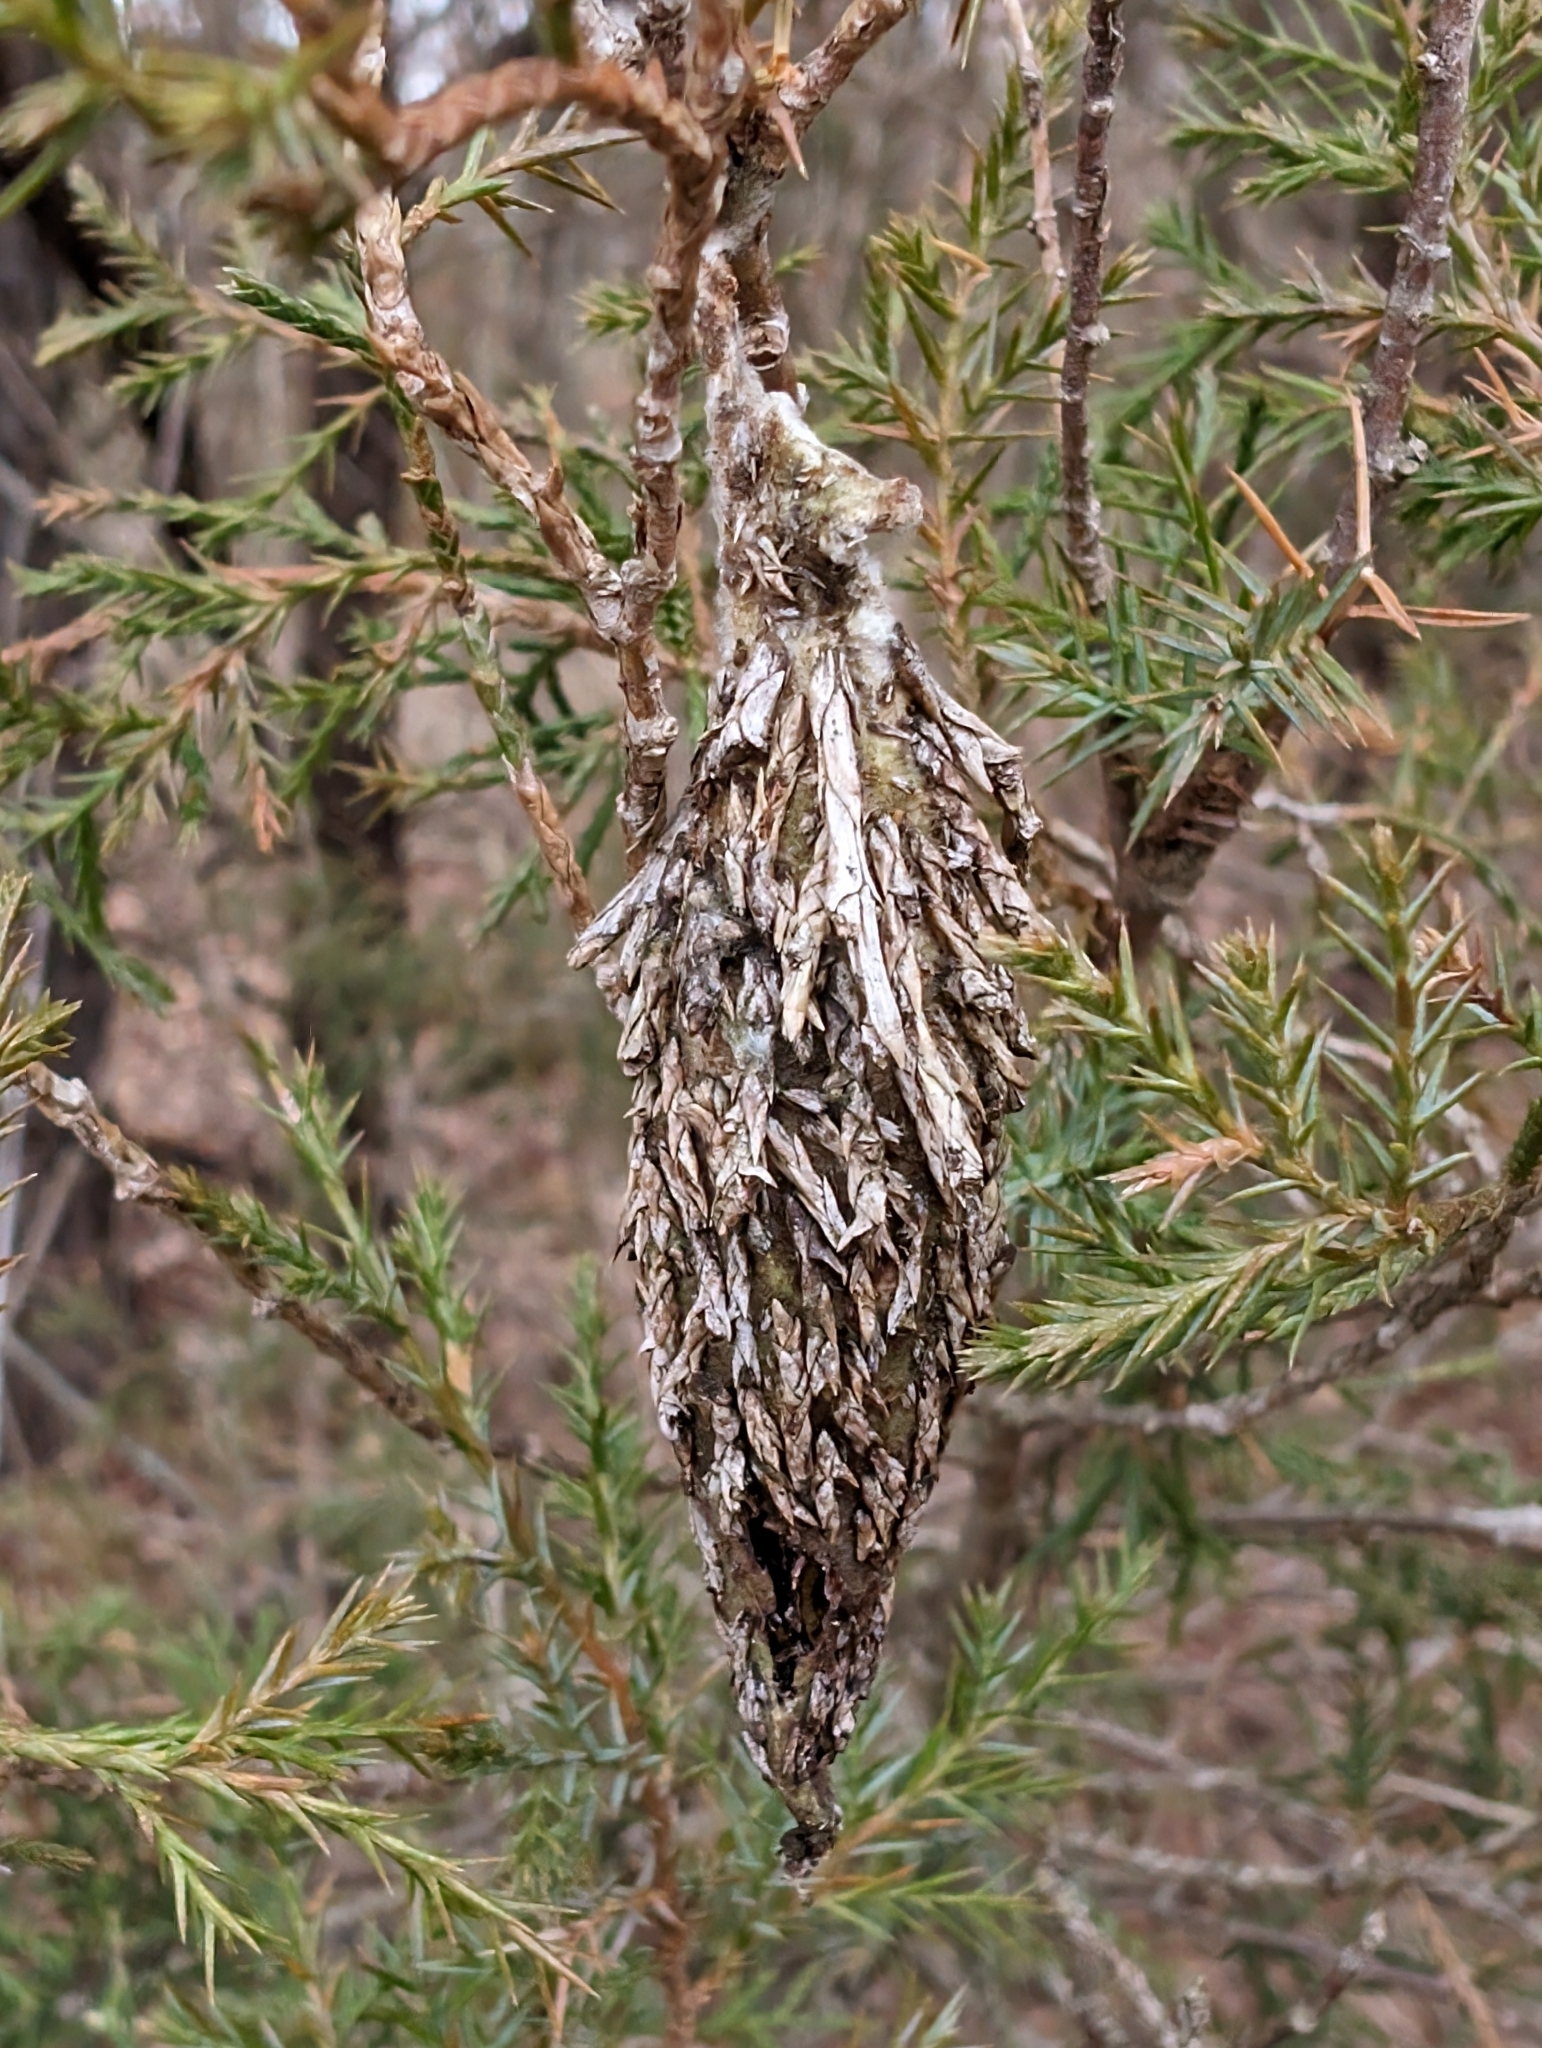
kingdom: Animalia
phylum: Arthropoda
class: Insecta
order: Lepidoptera
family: Psychidae
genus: Thyridopteryx
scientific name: Thyridopteryx ephemeraeformis
